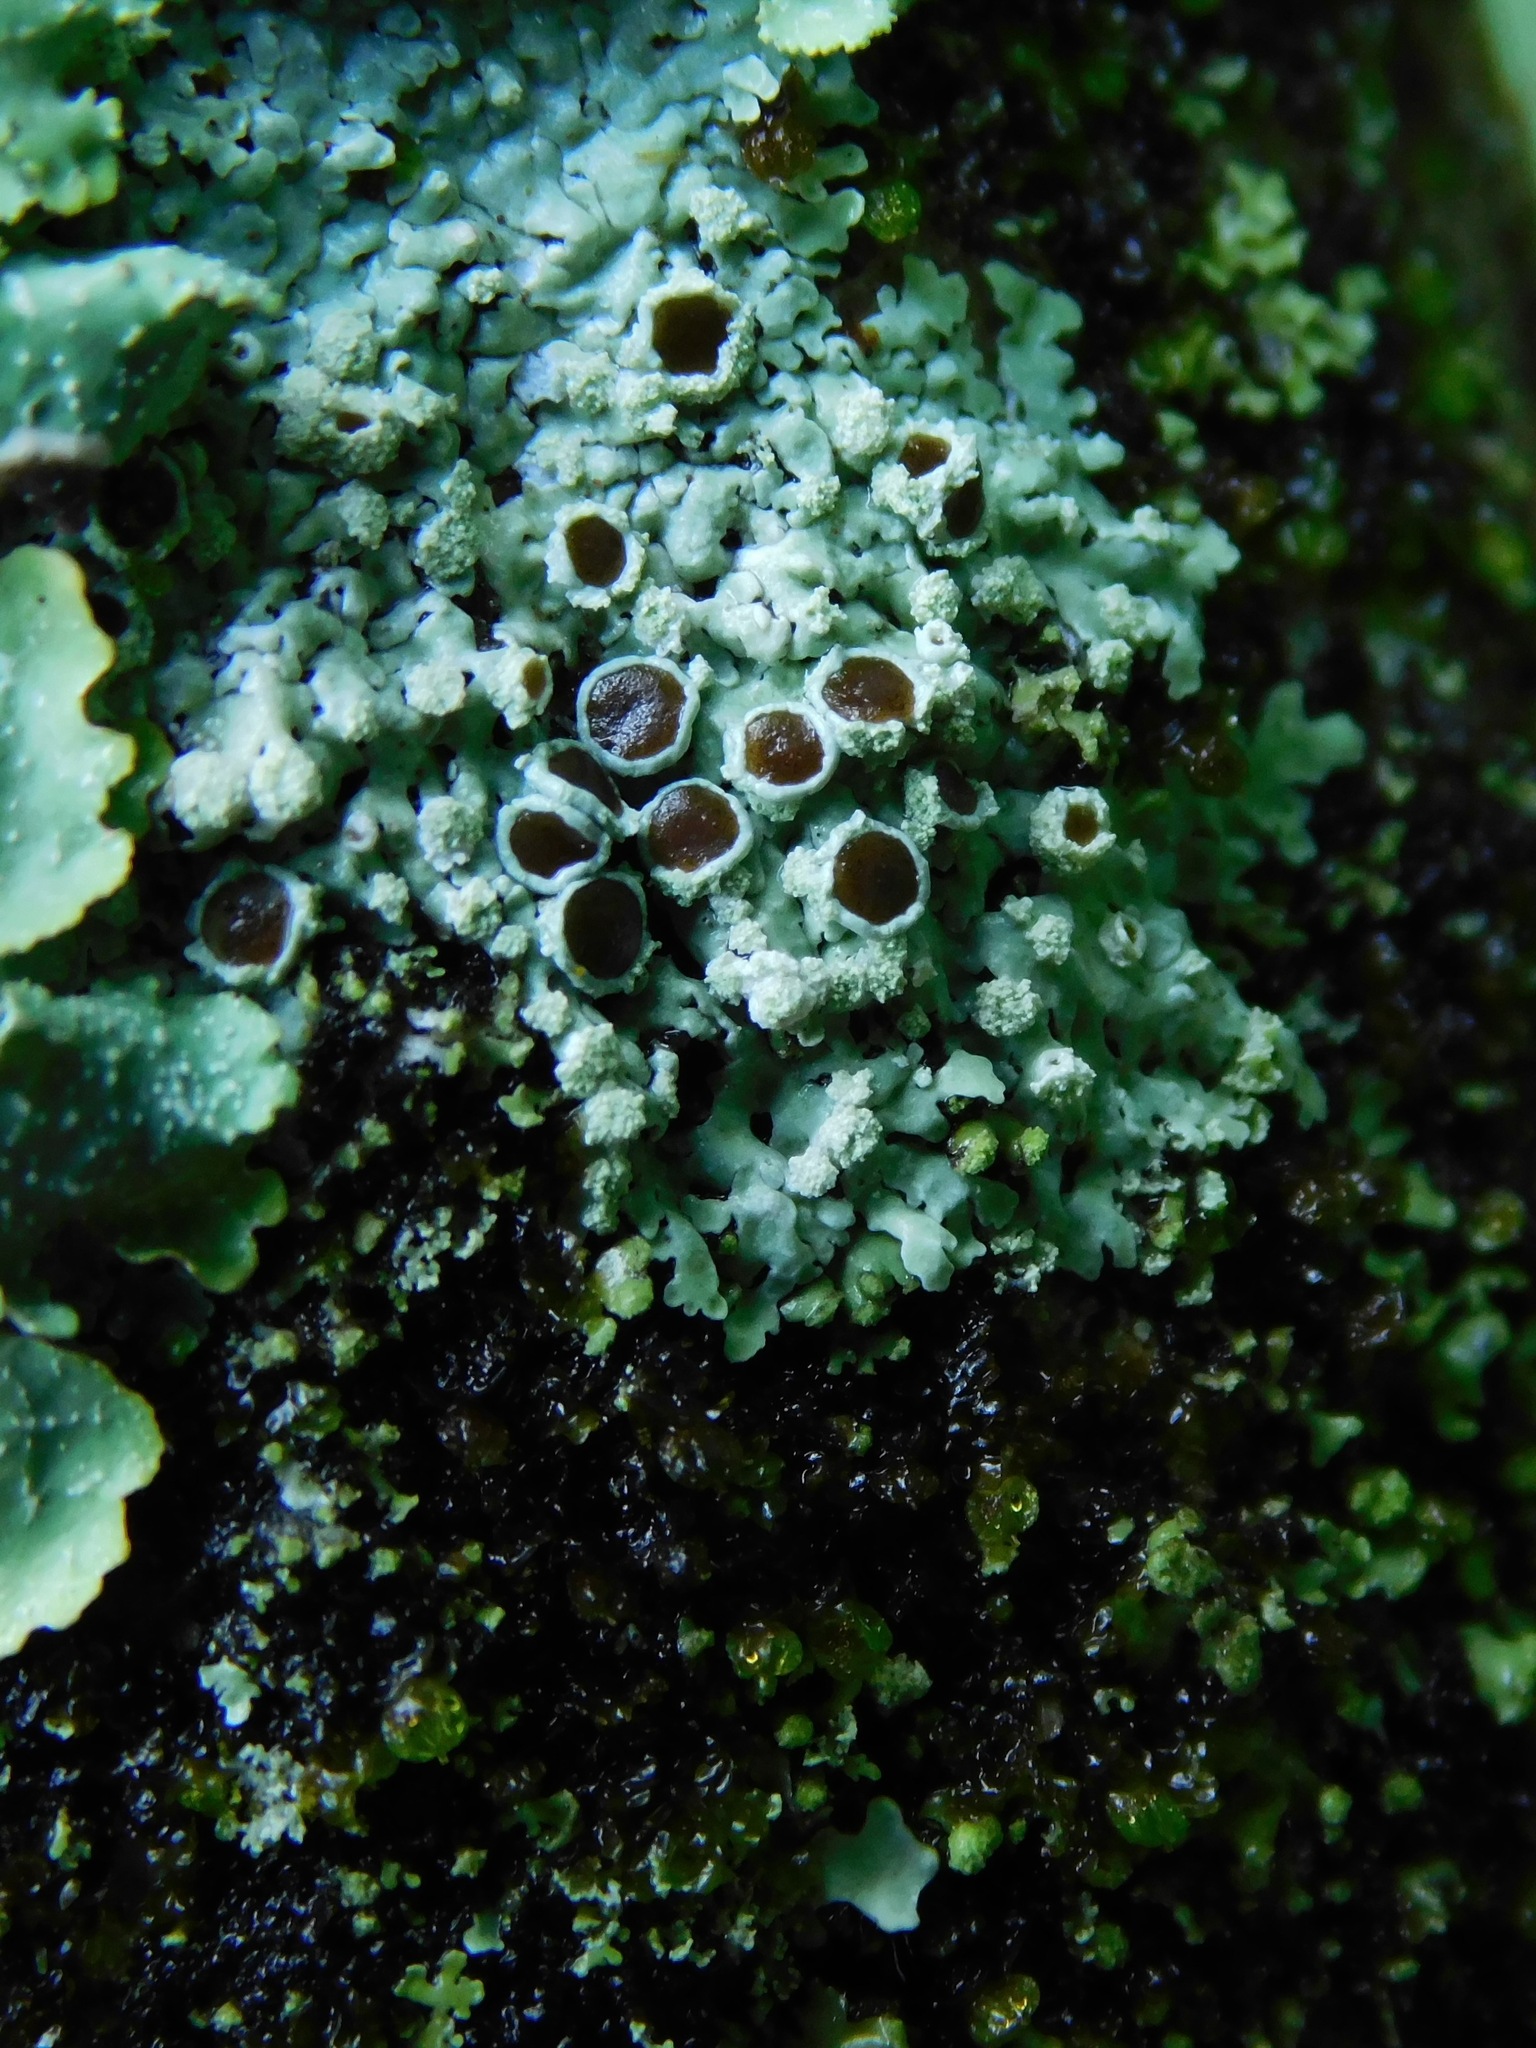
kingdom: Fungi
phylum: Ascomycota
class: Lecanoromycetes
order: Caliciales
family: Caliciaceae
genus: Pyxine
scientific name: Pyxine albovirens
